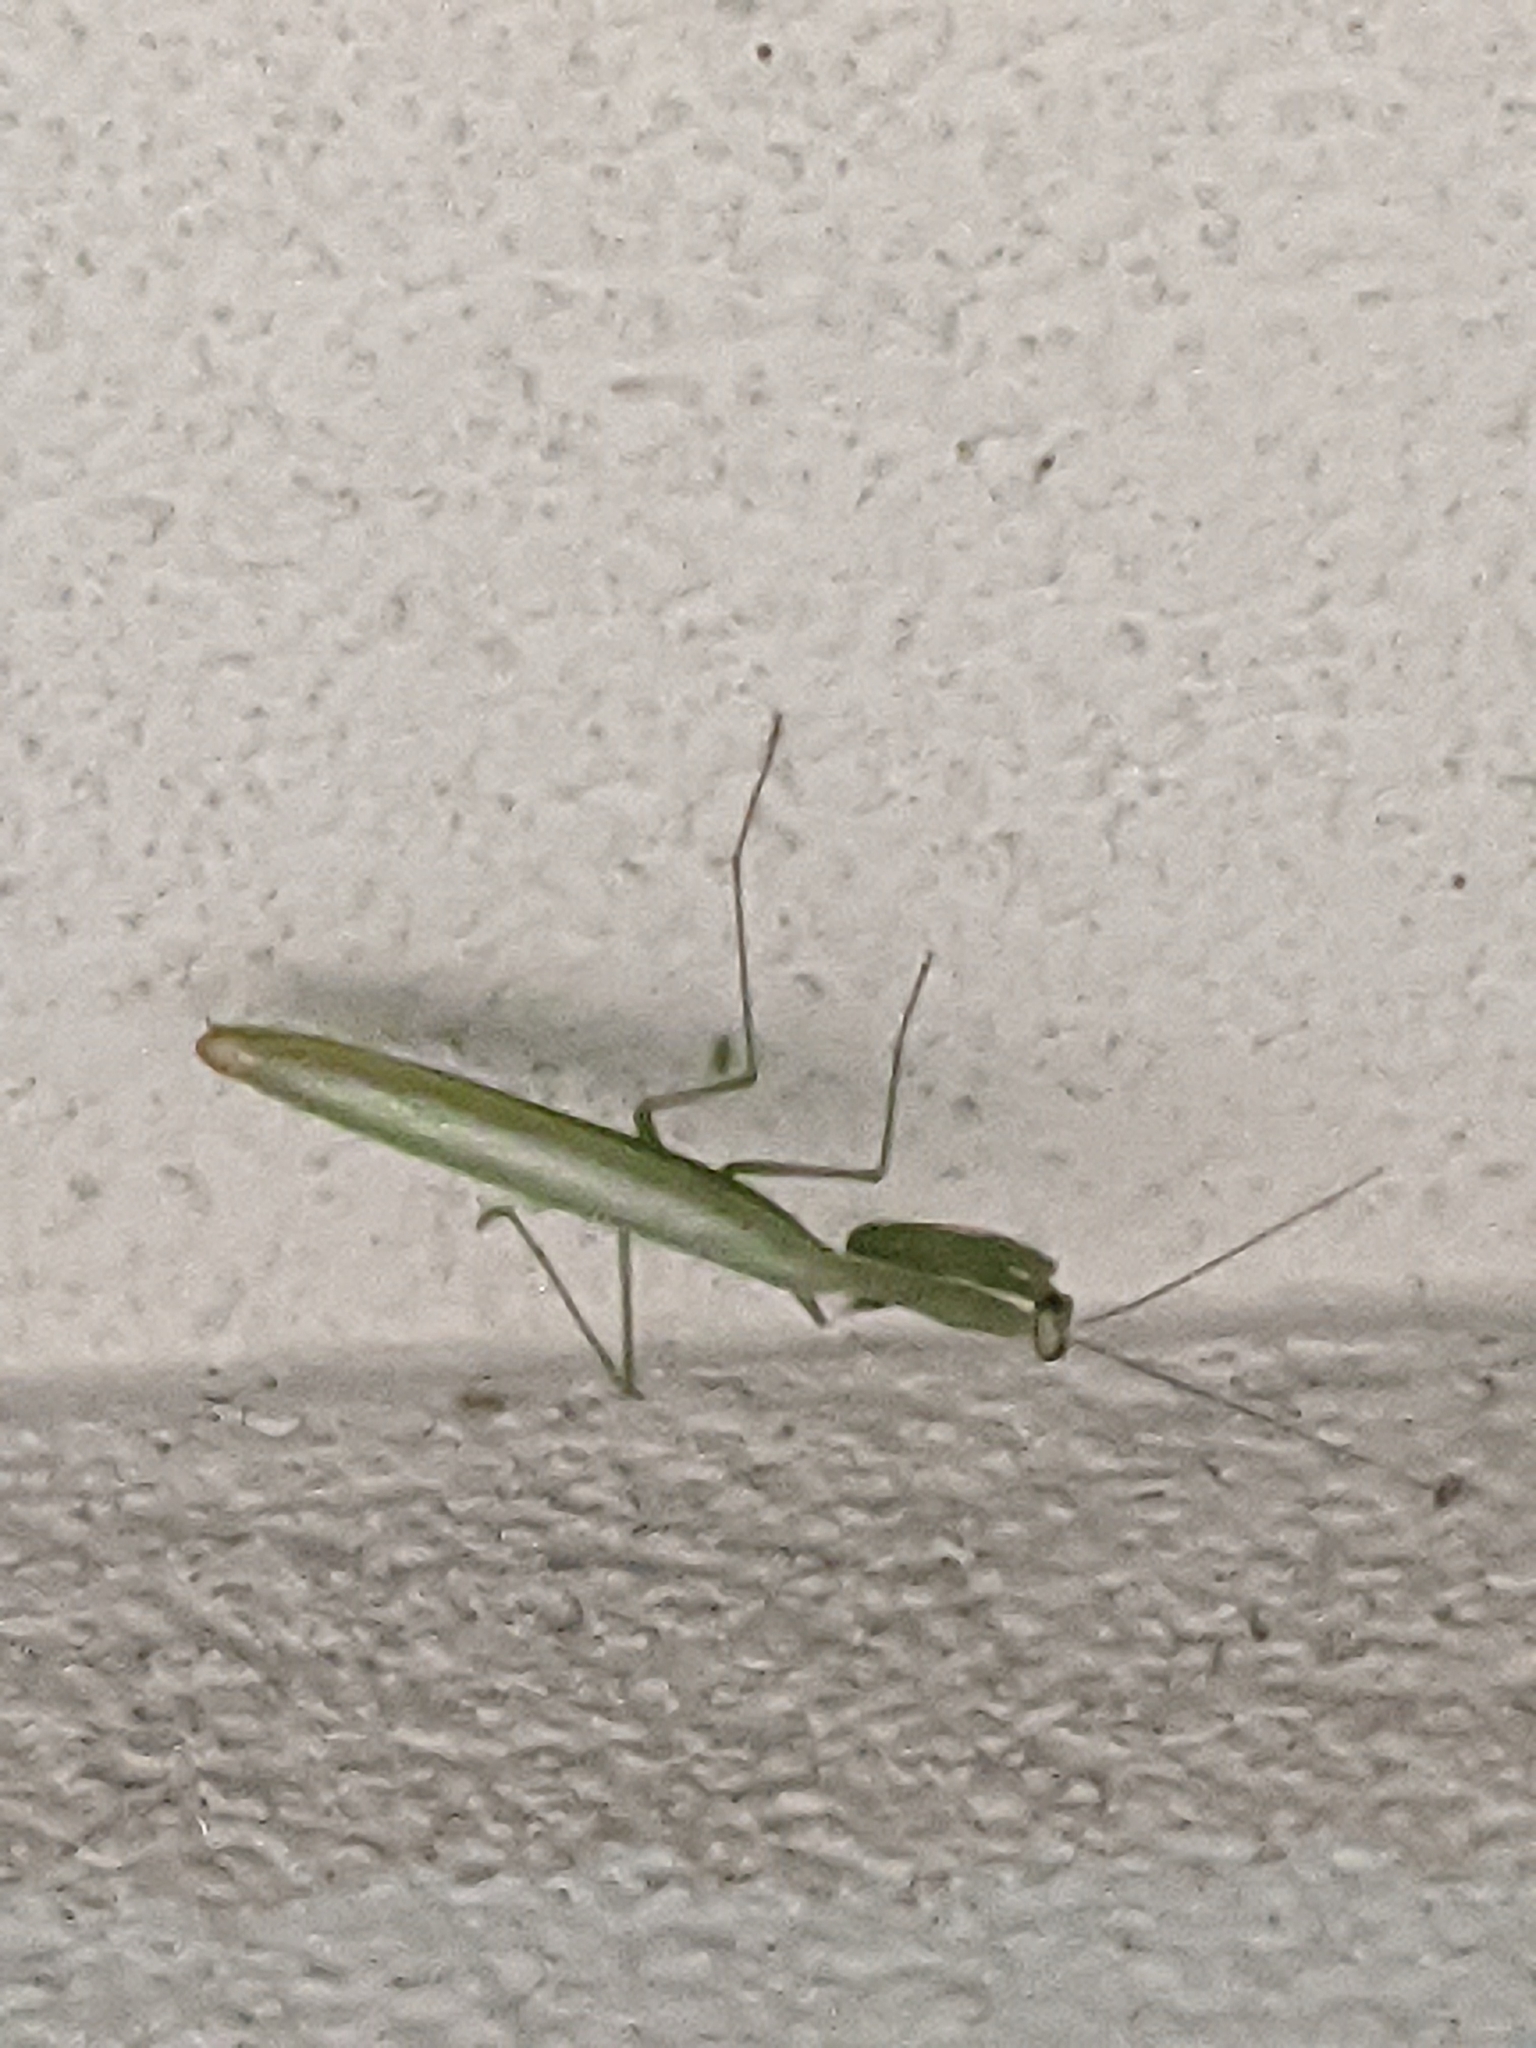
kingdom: Animalia
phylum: Arthropoda
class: Insecta
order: Mantodea
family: Mantidae
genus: Mantis
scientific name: Mantis religiosa
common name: Praying mantis
